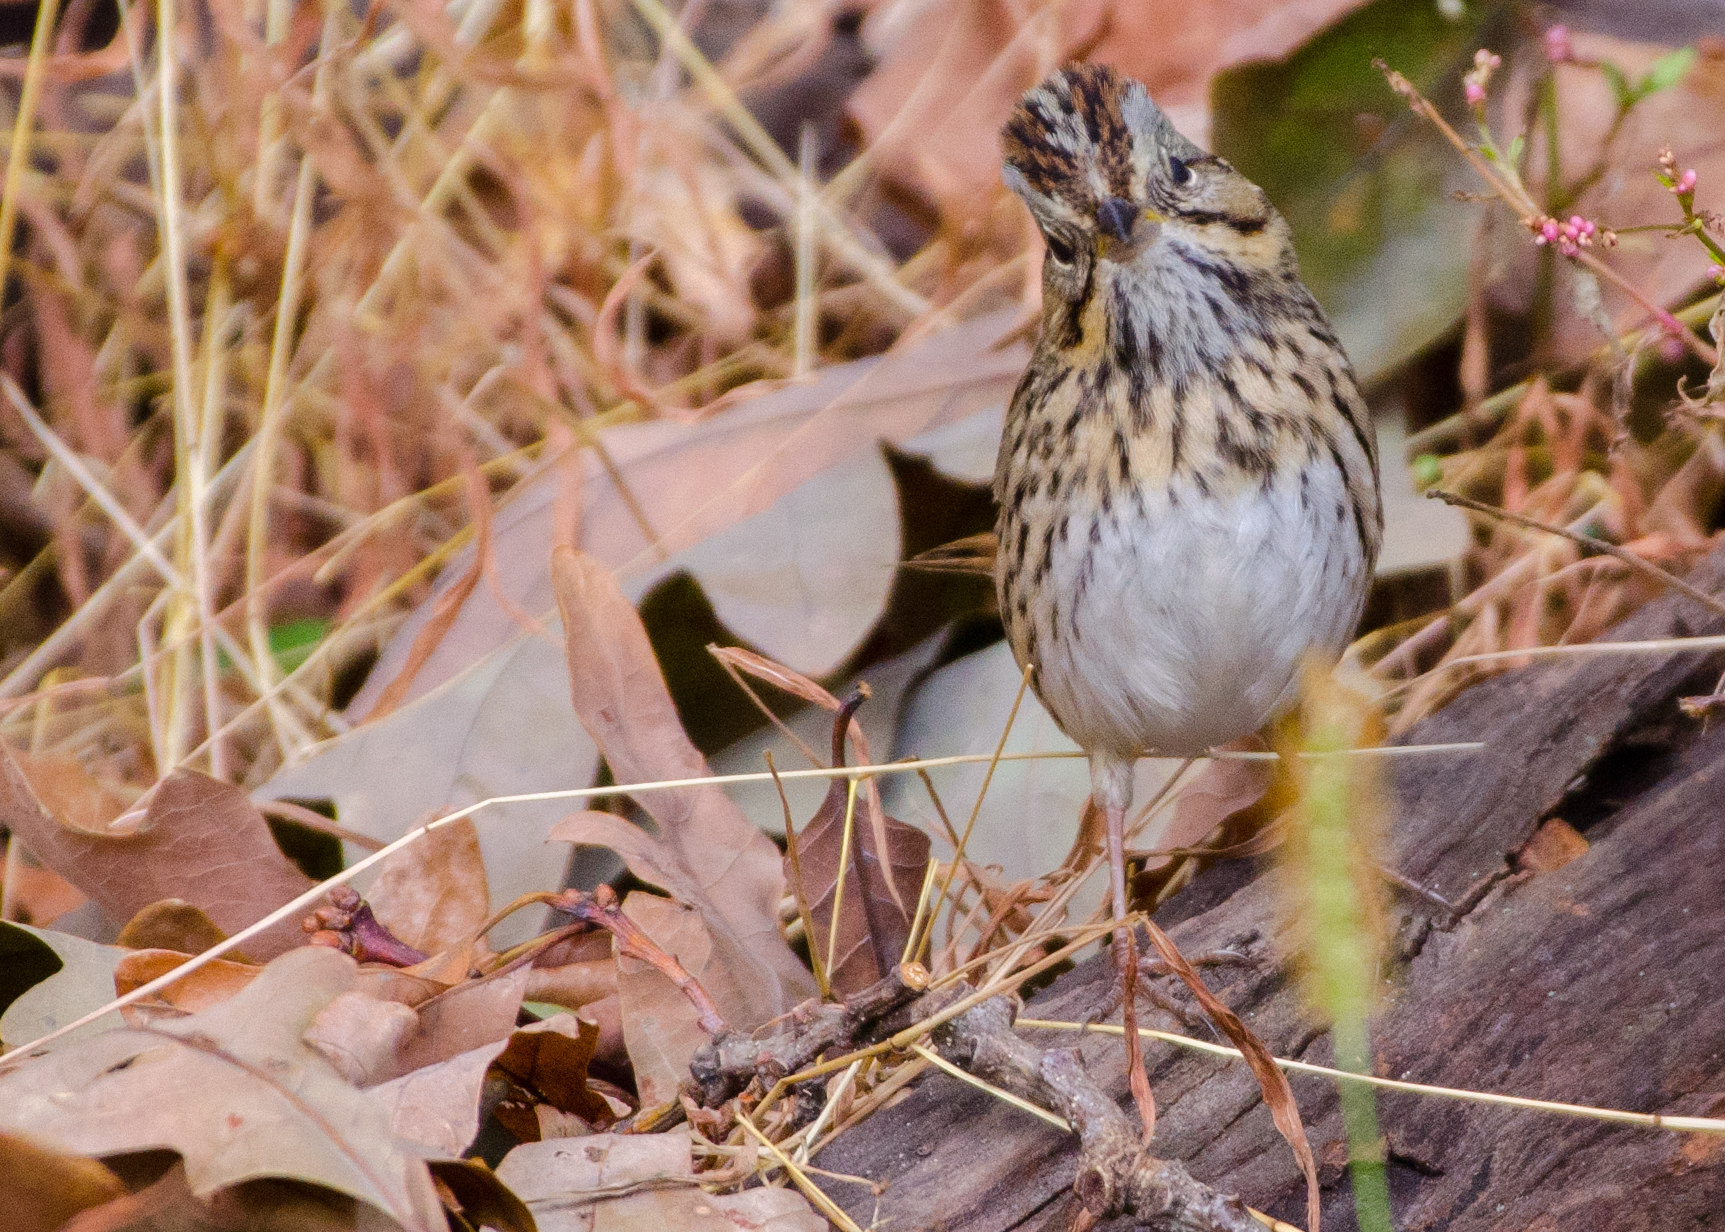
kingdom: Animalia
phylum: Chordata
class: Aves
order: Passeriformes
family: Passerellidae
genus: Melospiza
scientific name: Melospiza lincolnii
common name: Lincoln's sparrow
